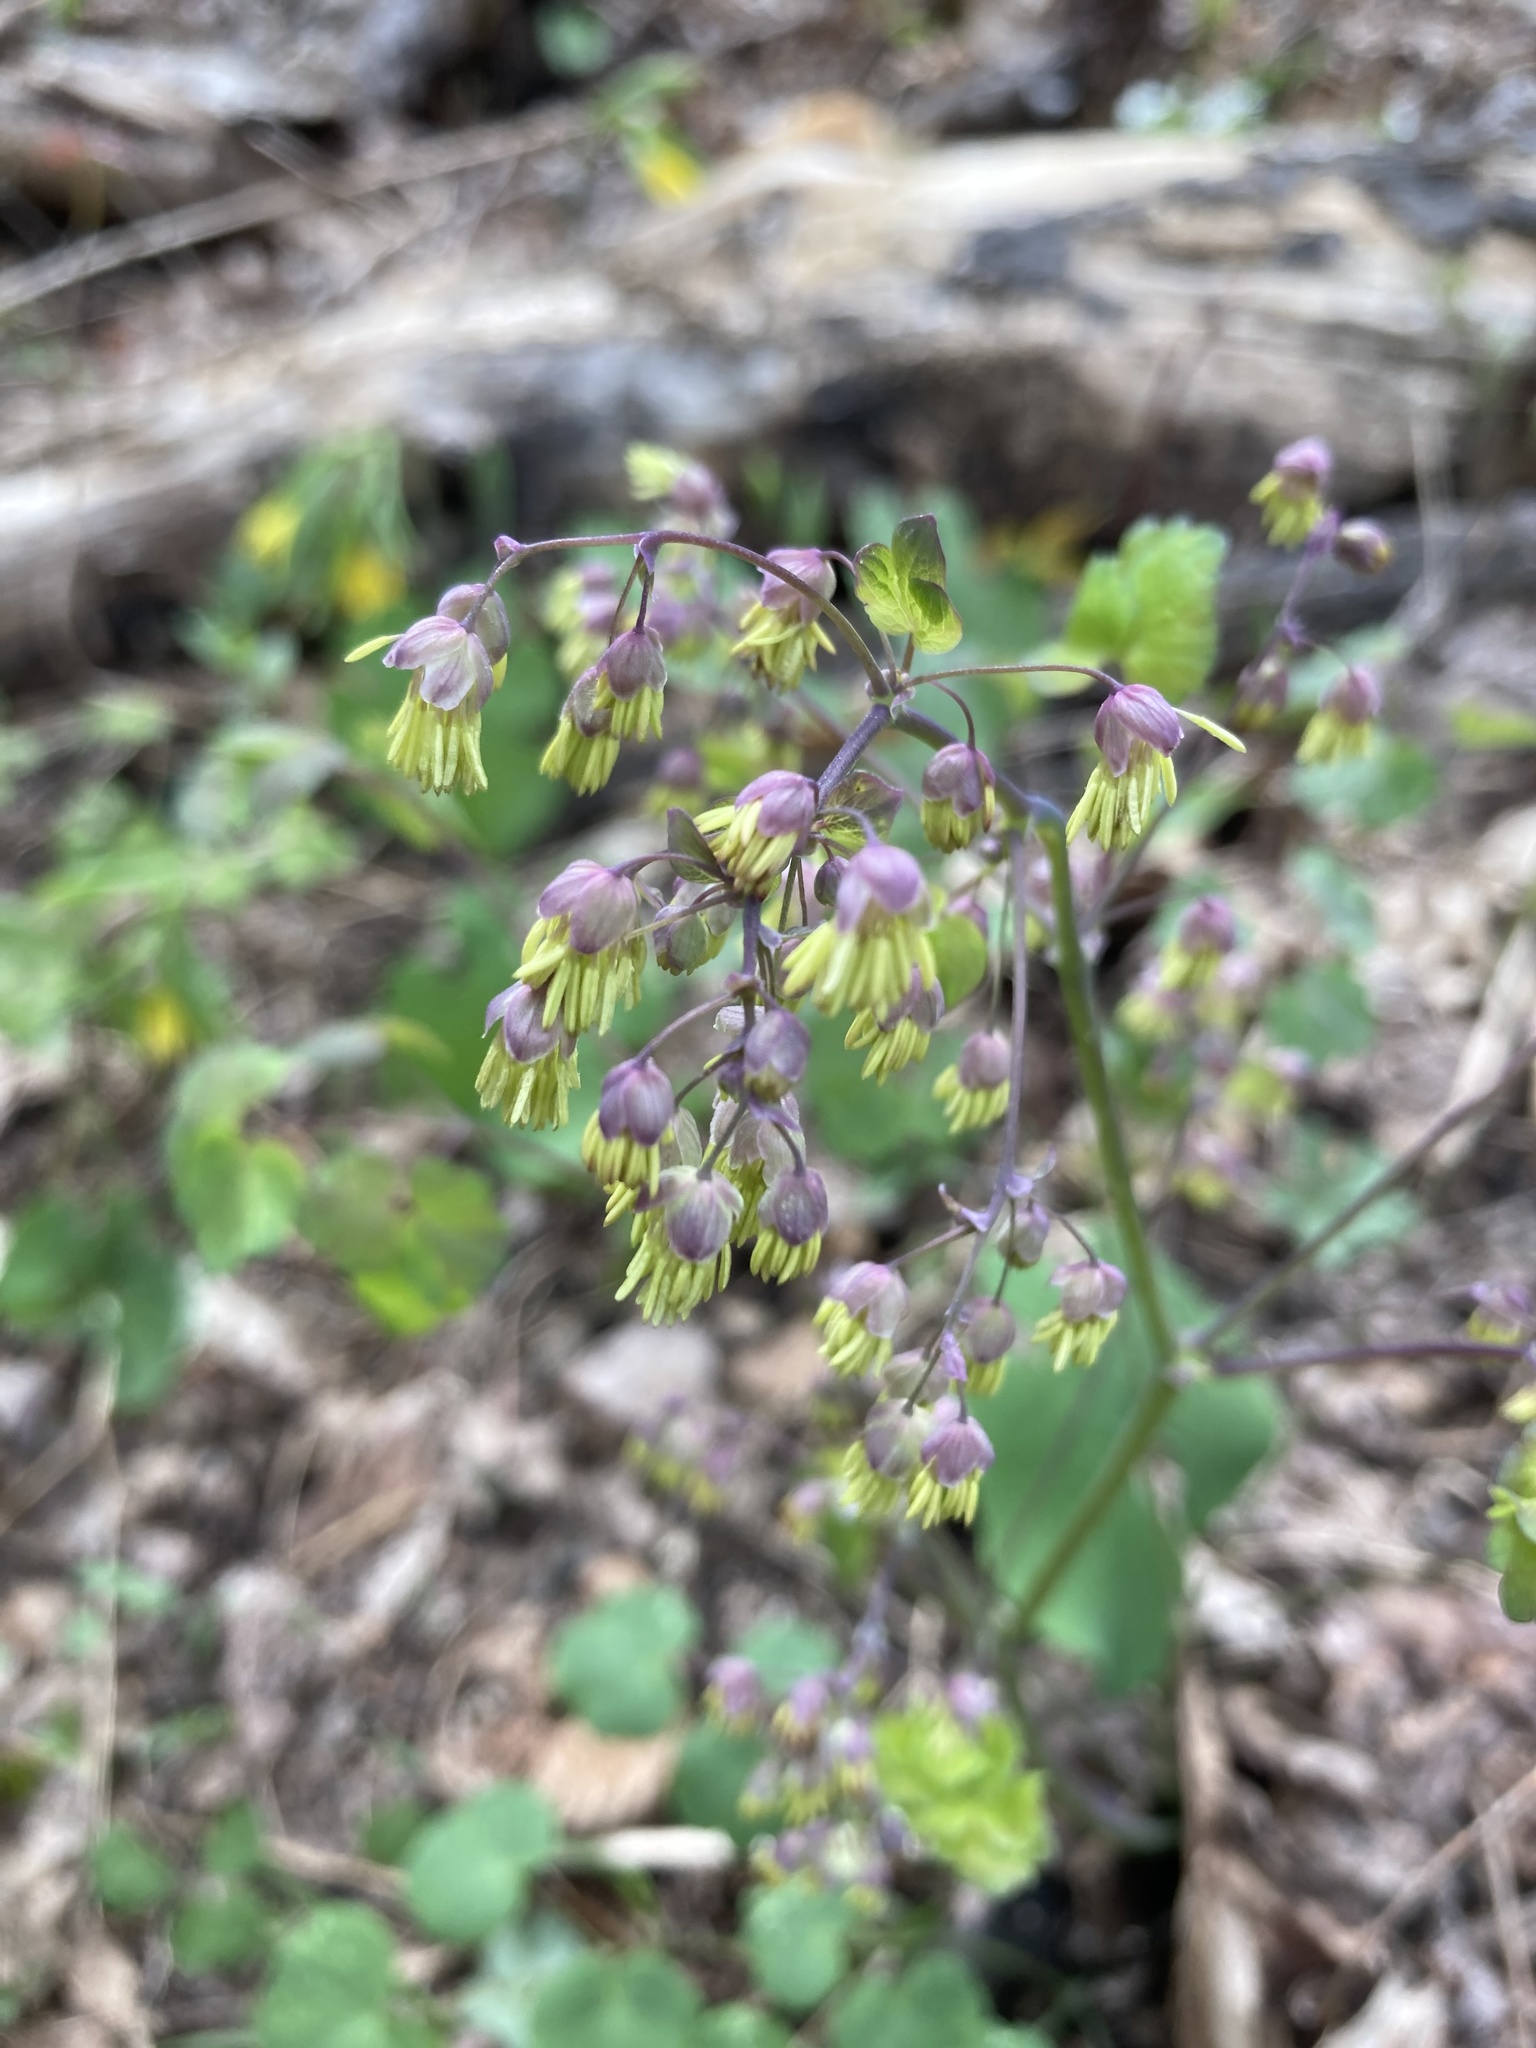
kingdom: Plantae
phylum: Tracheophyta
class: Magnoliopsida
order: Ranunculales
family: Ranunculaceae
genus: Thalictrum
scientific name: Thalictrum dioicum
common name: Early meadow-rue
